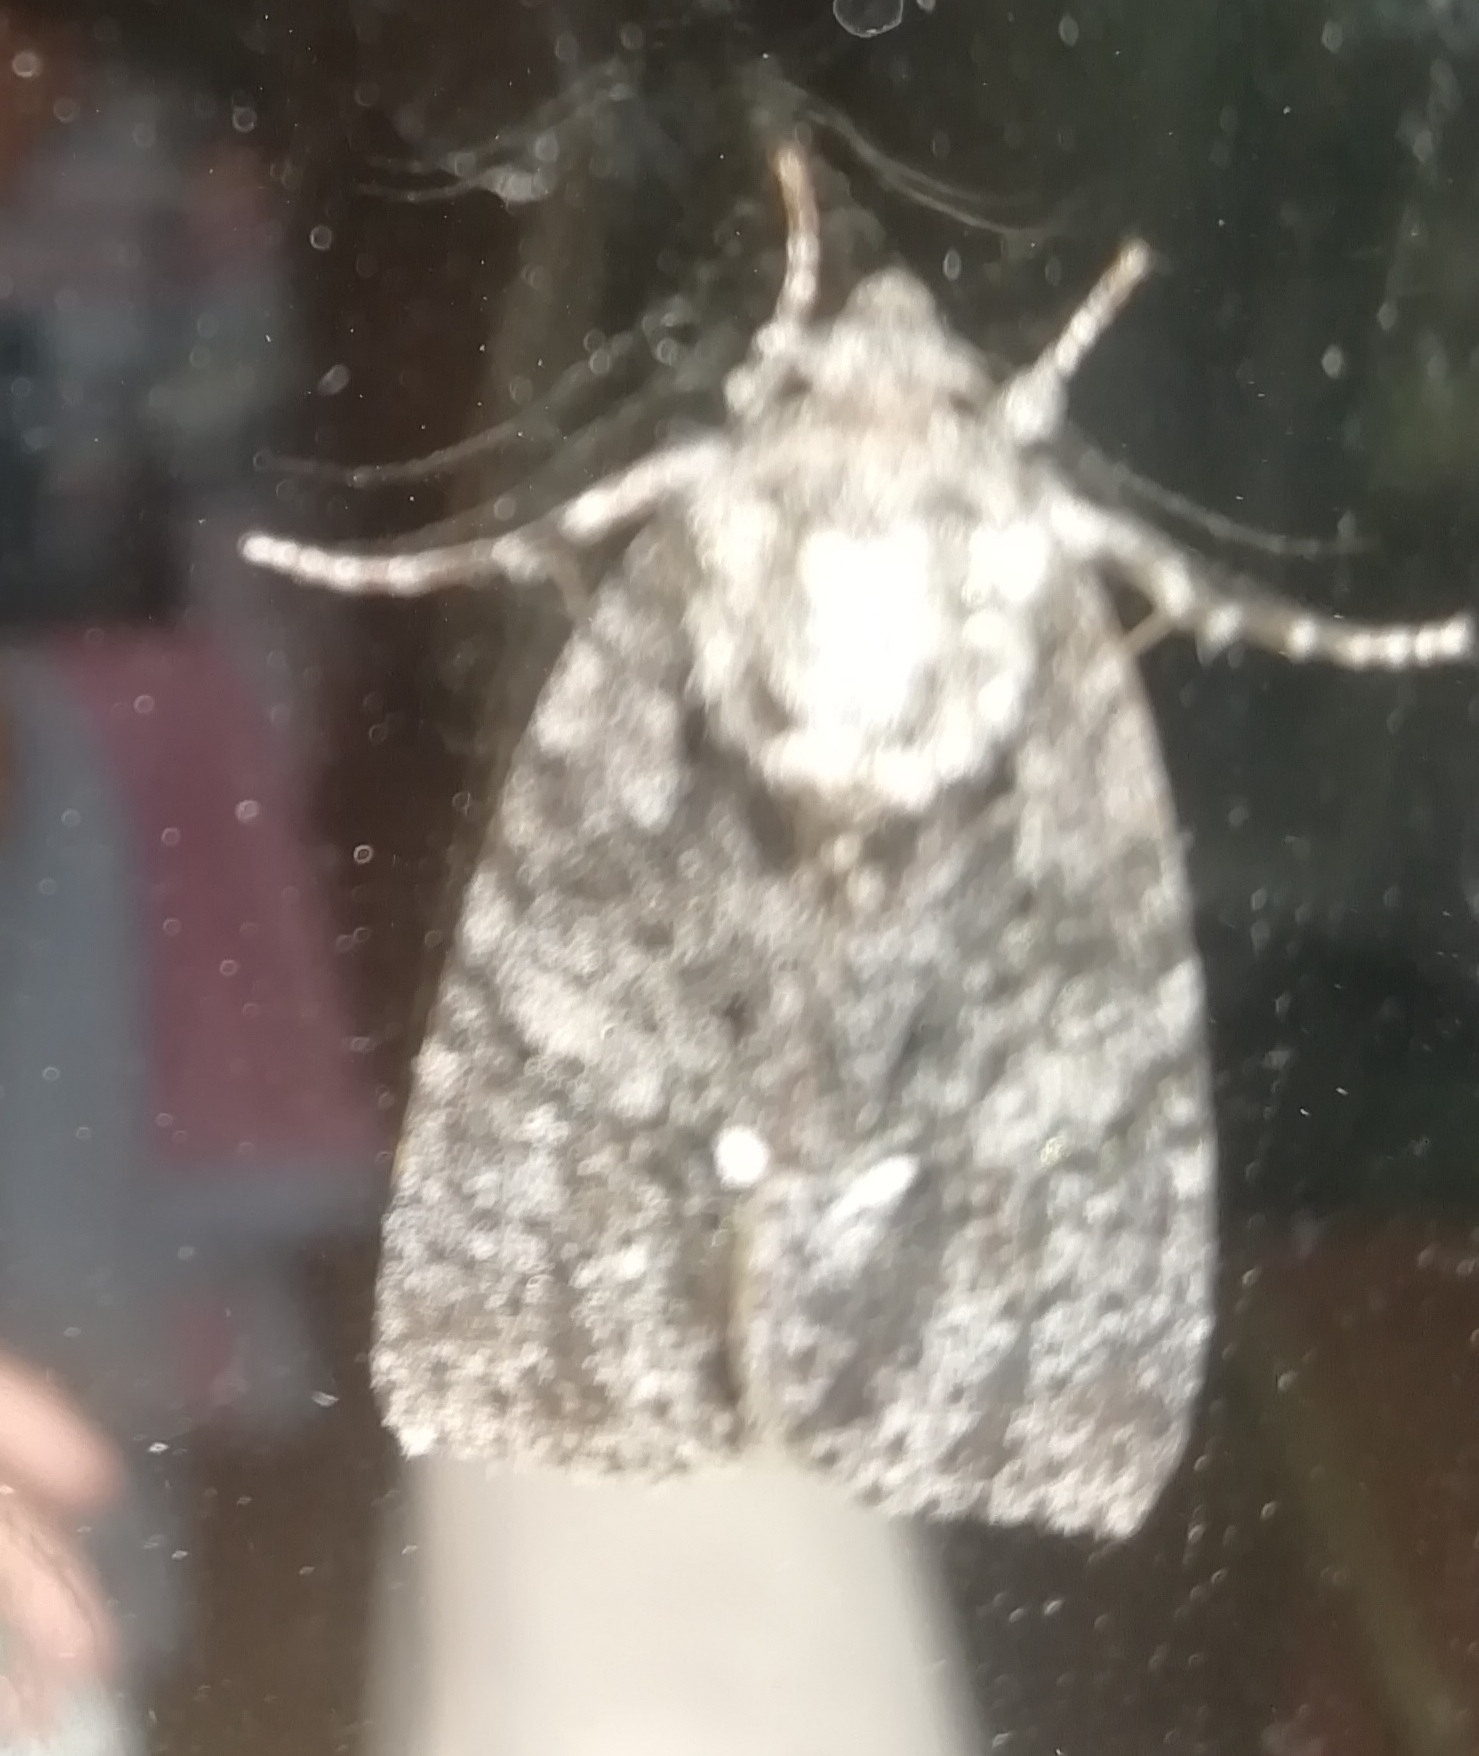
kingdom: Animalia
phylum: Arthropoda
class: Insecta
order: Lepidoptera
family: Noctuidae
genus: Acronicta
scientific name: Acronicta rumicis
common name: Knot grass
